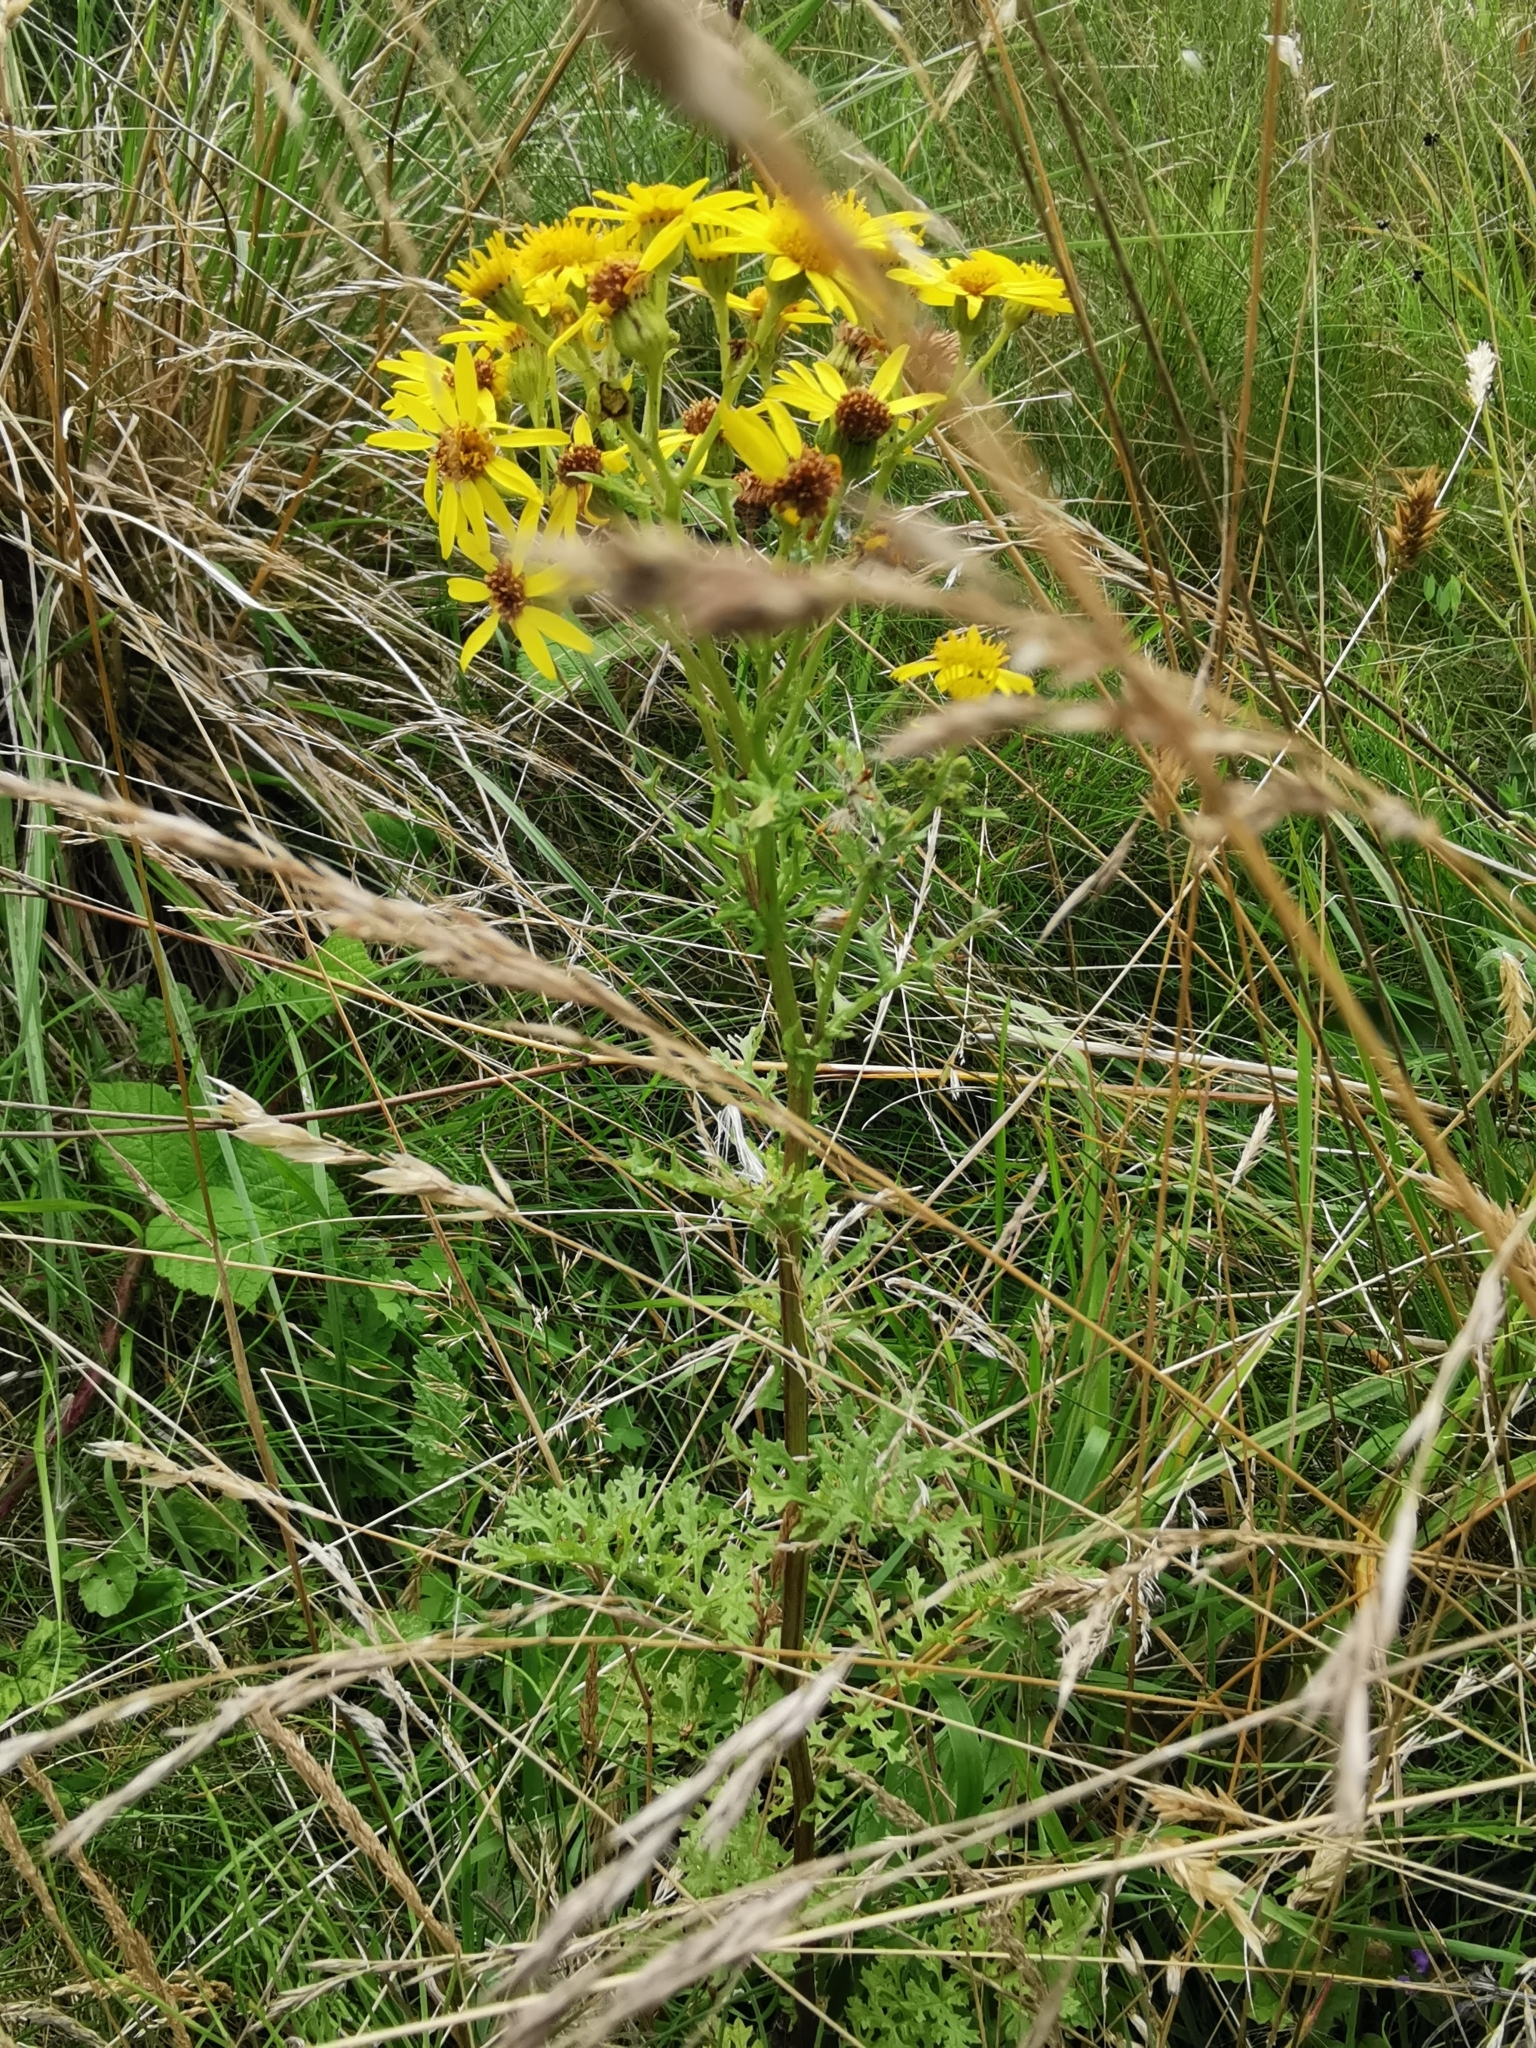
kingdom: Plantae
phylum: Tracheophyta
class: Magnoliopsida
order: Asterales
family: Asteraceae
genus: Jacobaea
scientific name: Jacobaea vulgaris
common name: Stinking willie
